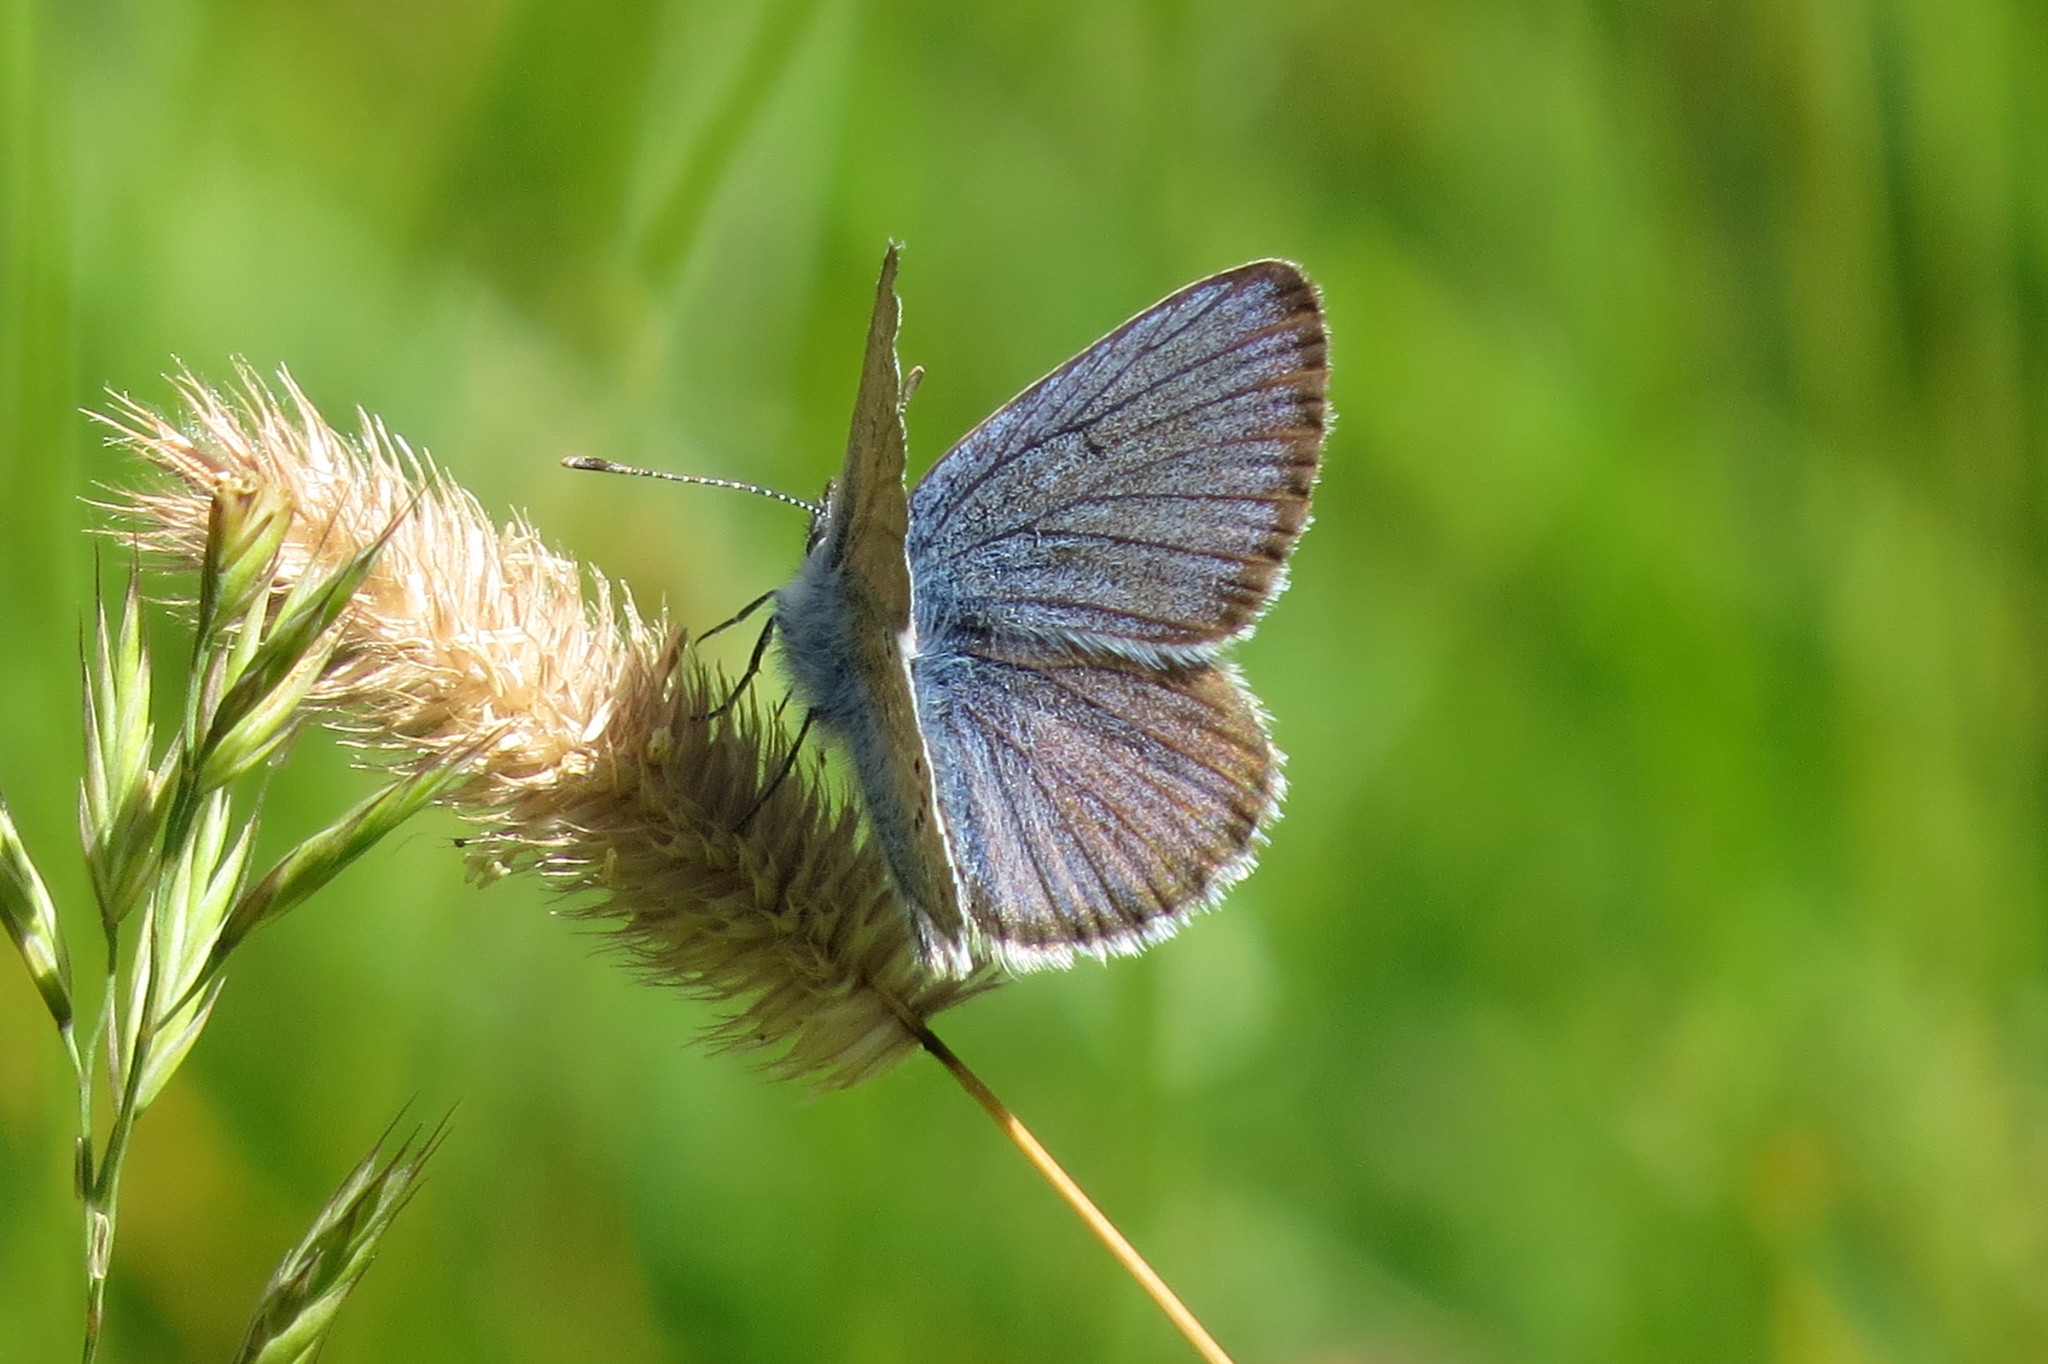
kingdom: Animalia
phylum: Arthropoda
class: Insecta
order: Lepidoptera
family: Lycaenidae
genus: Cyaniris
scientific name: Cyaniris semiargus
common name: Mazarine blue
